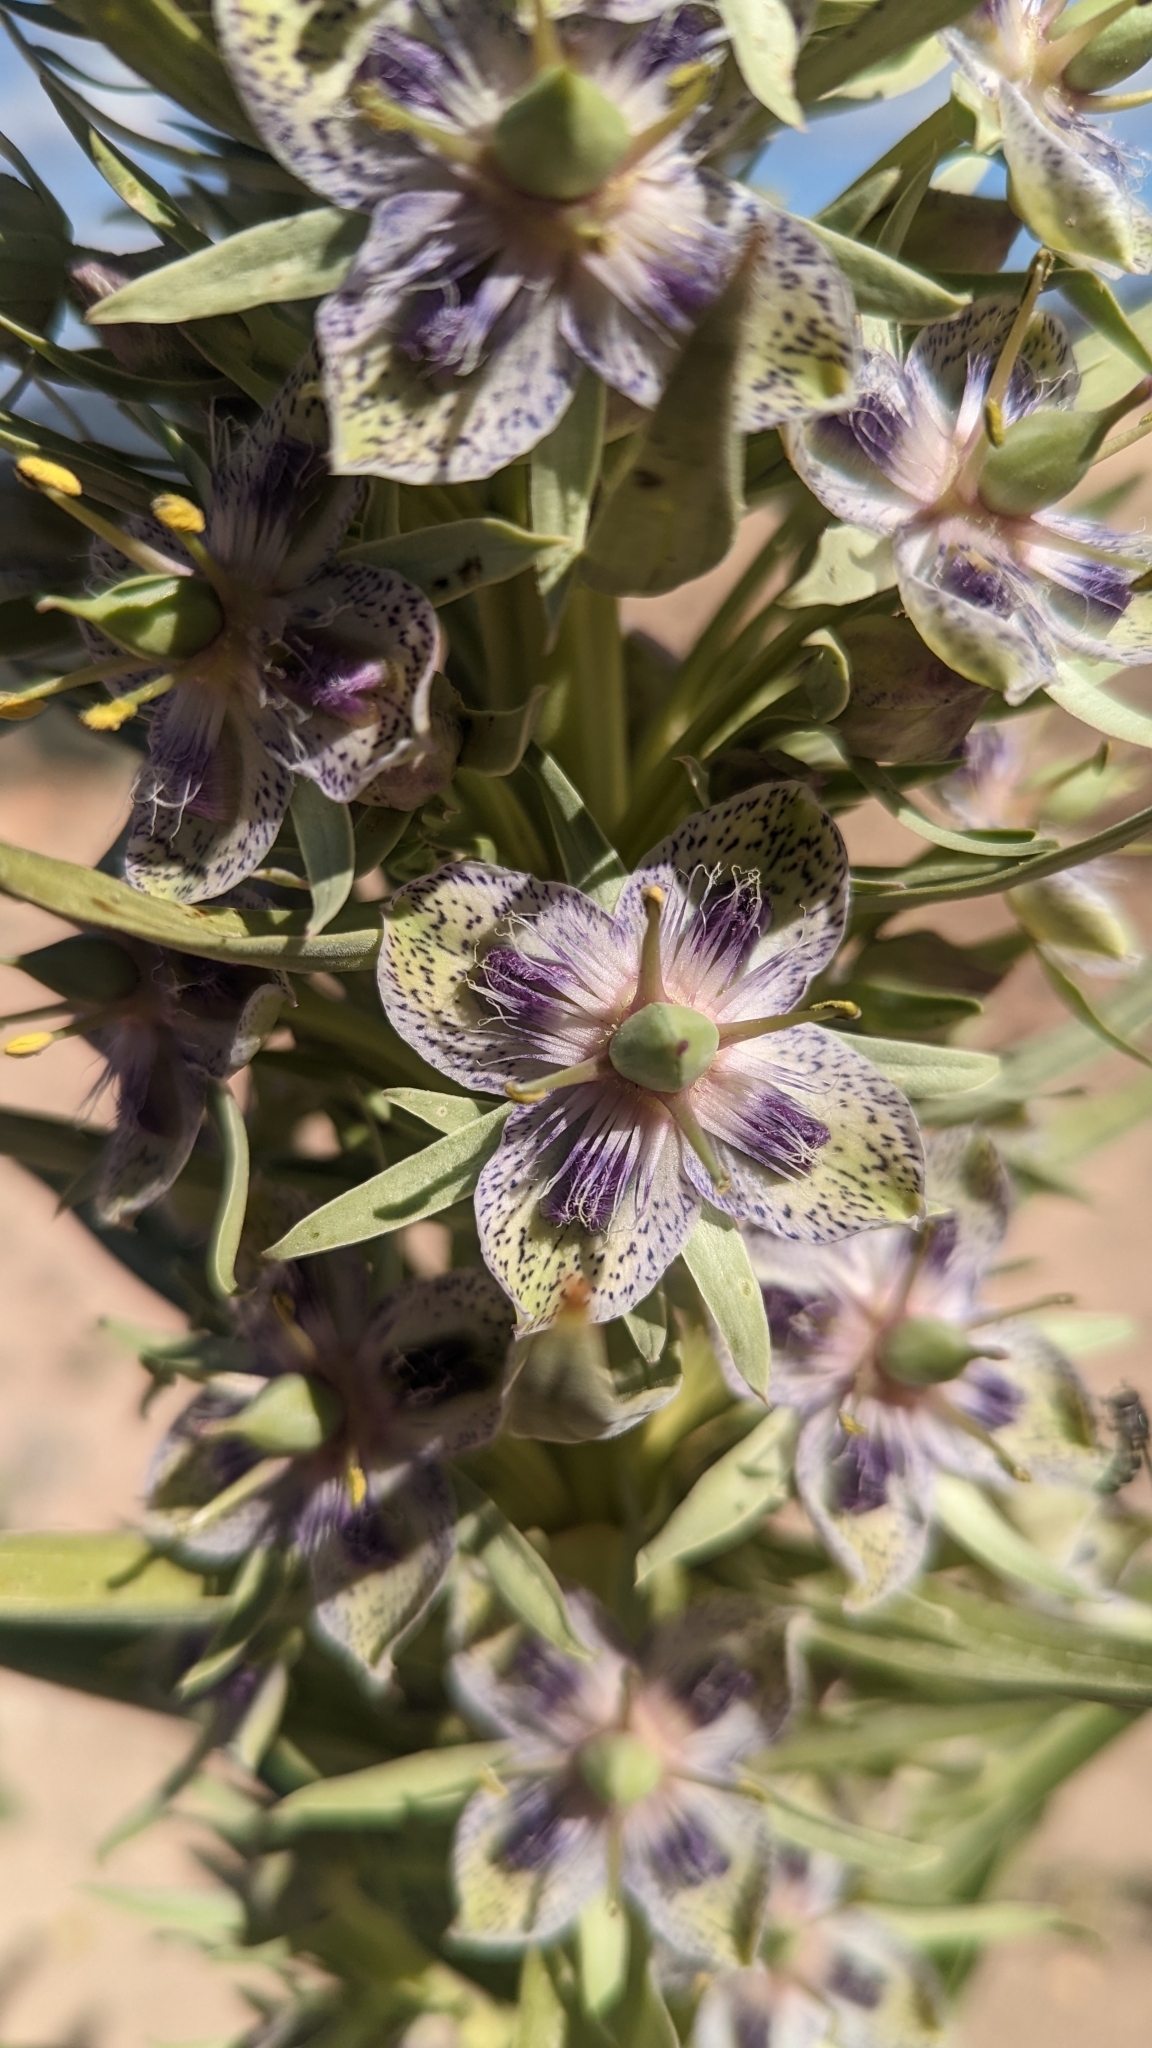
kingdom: Plantae
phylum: Tracheophyta
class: Magnoliopsida
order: Gentianales
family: Gentianaceae
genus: Frasera
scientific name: Frasera speciosa
